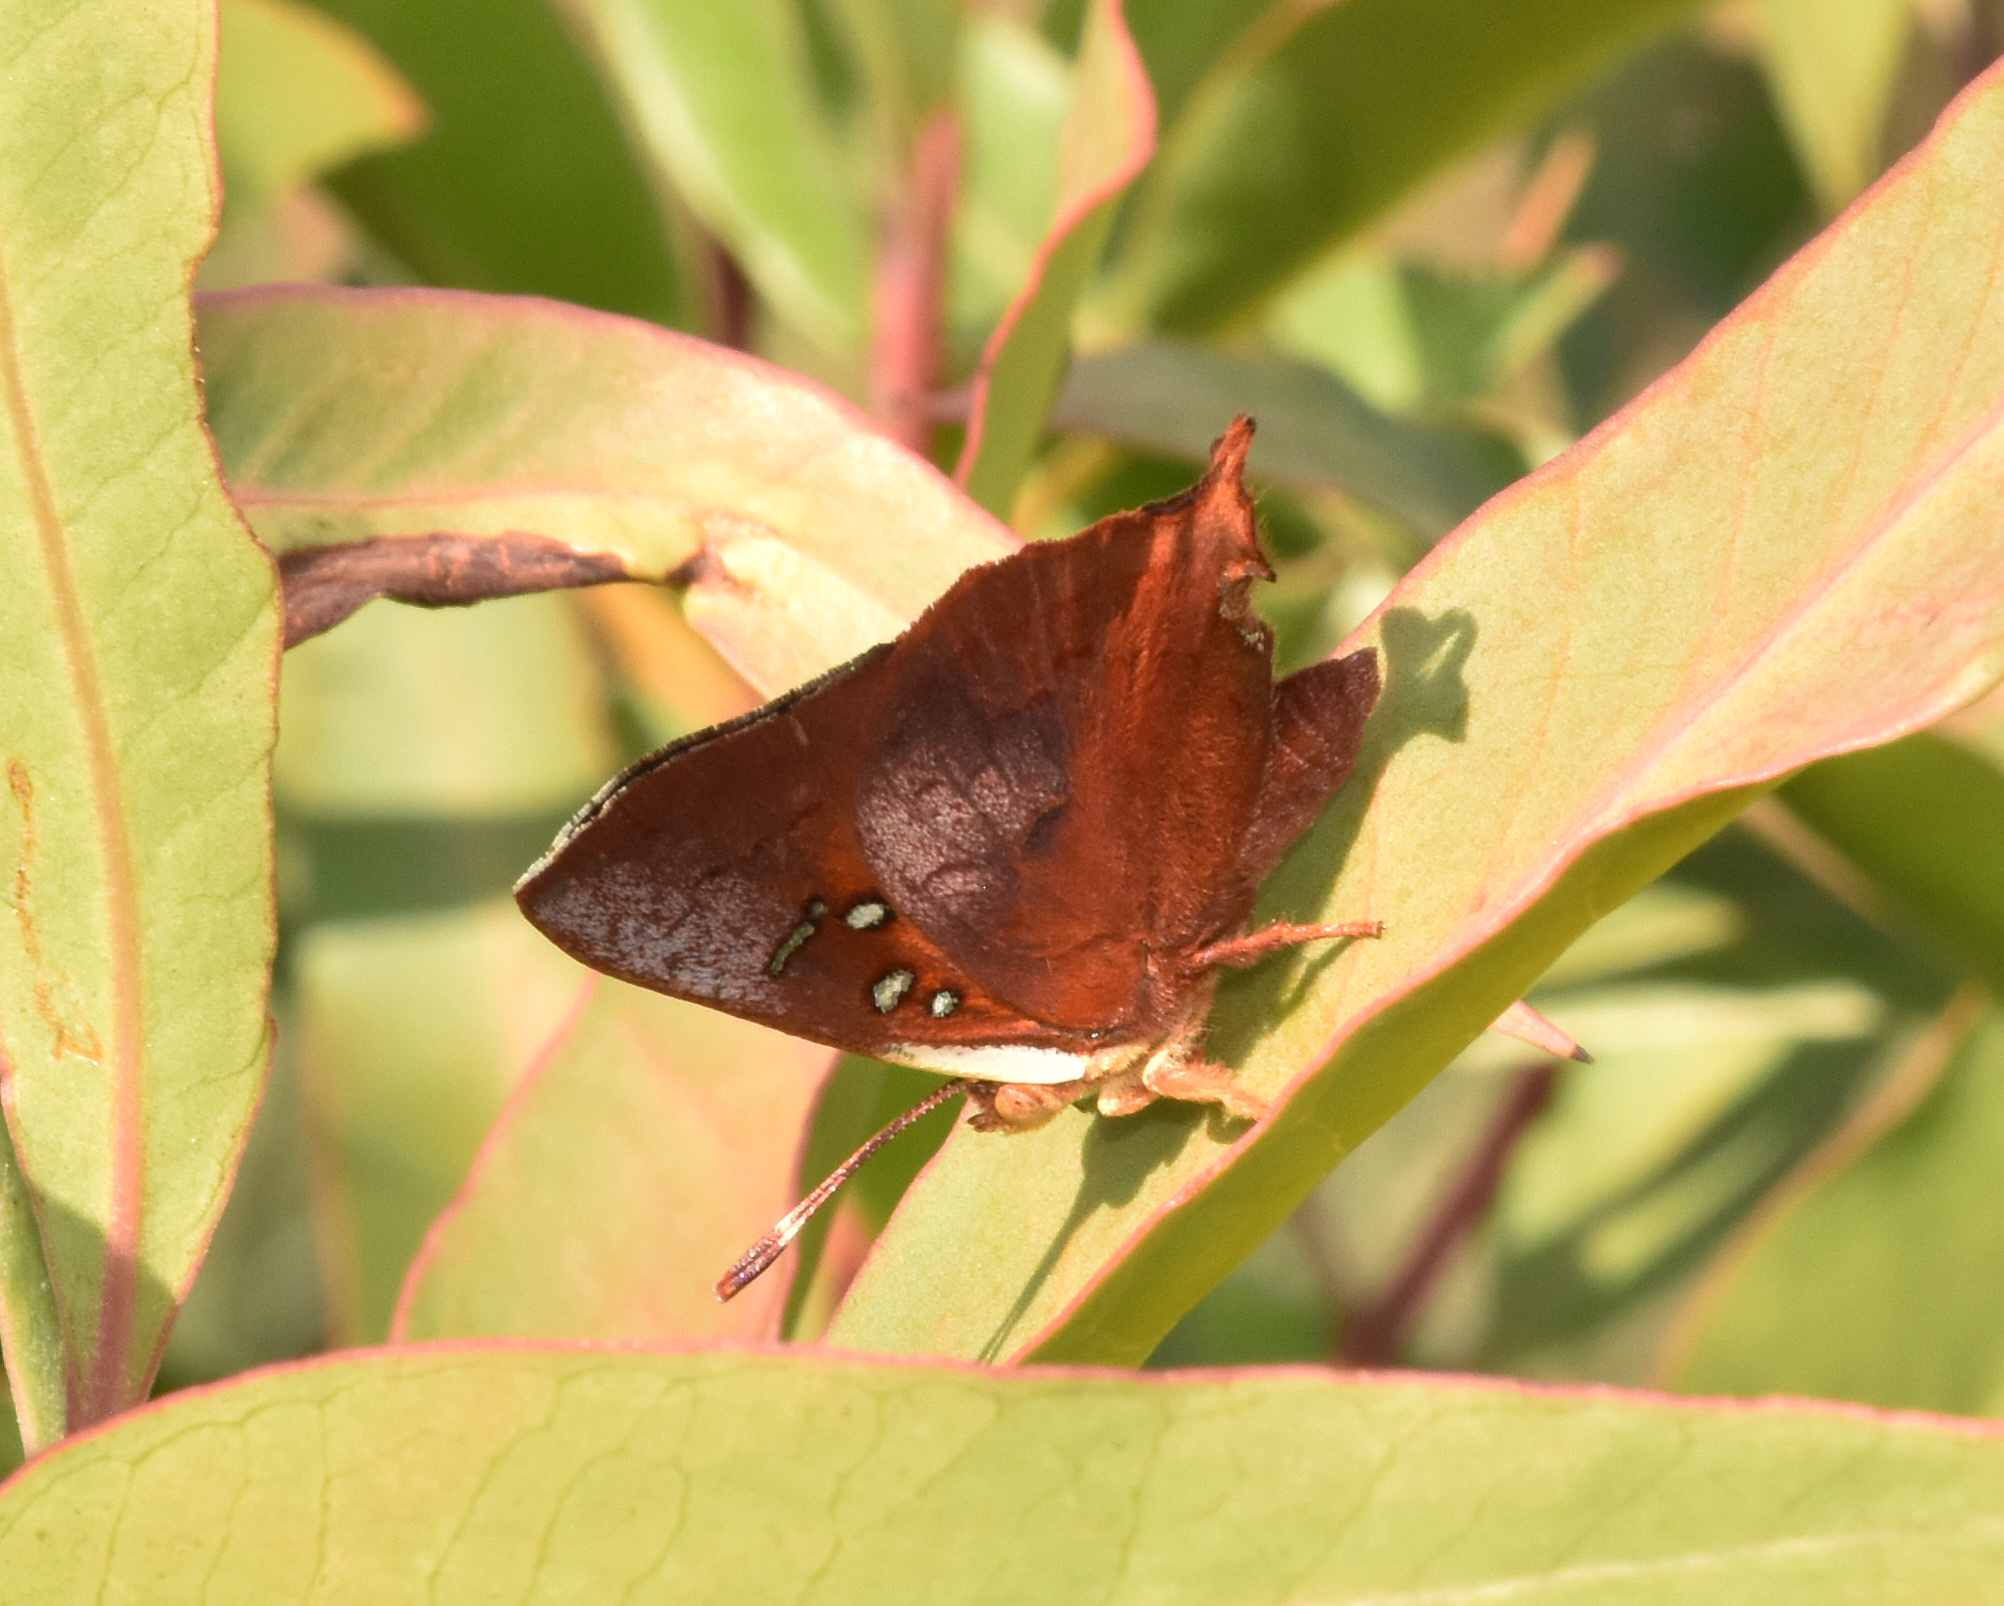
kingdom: Animalia
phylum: Arthropoda
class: Insecta
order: Lepidoptera
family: Lycaenidae
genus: Axiocerses
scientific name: Axiocerses amanga
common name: Bush scarlet
